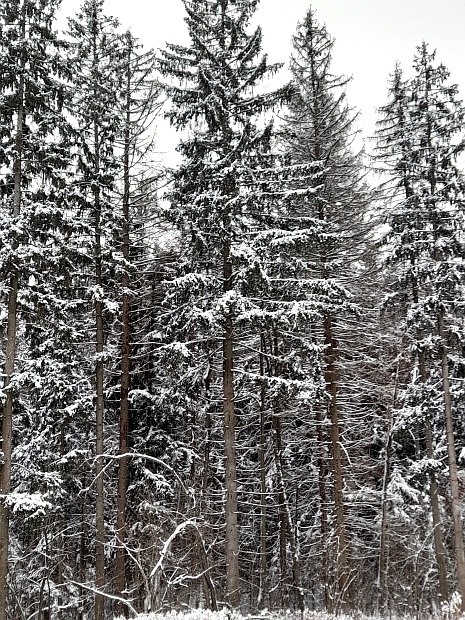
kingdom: Plantae
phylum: Tracheophyta
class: Pinopsida
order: Pinales
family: Pinaceae
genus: Picea
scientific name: Picea abies
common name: Norway spruce
